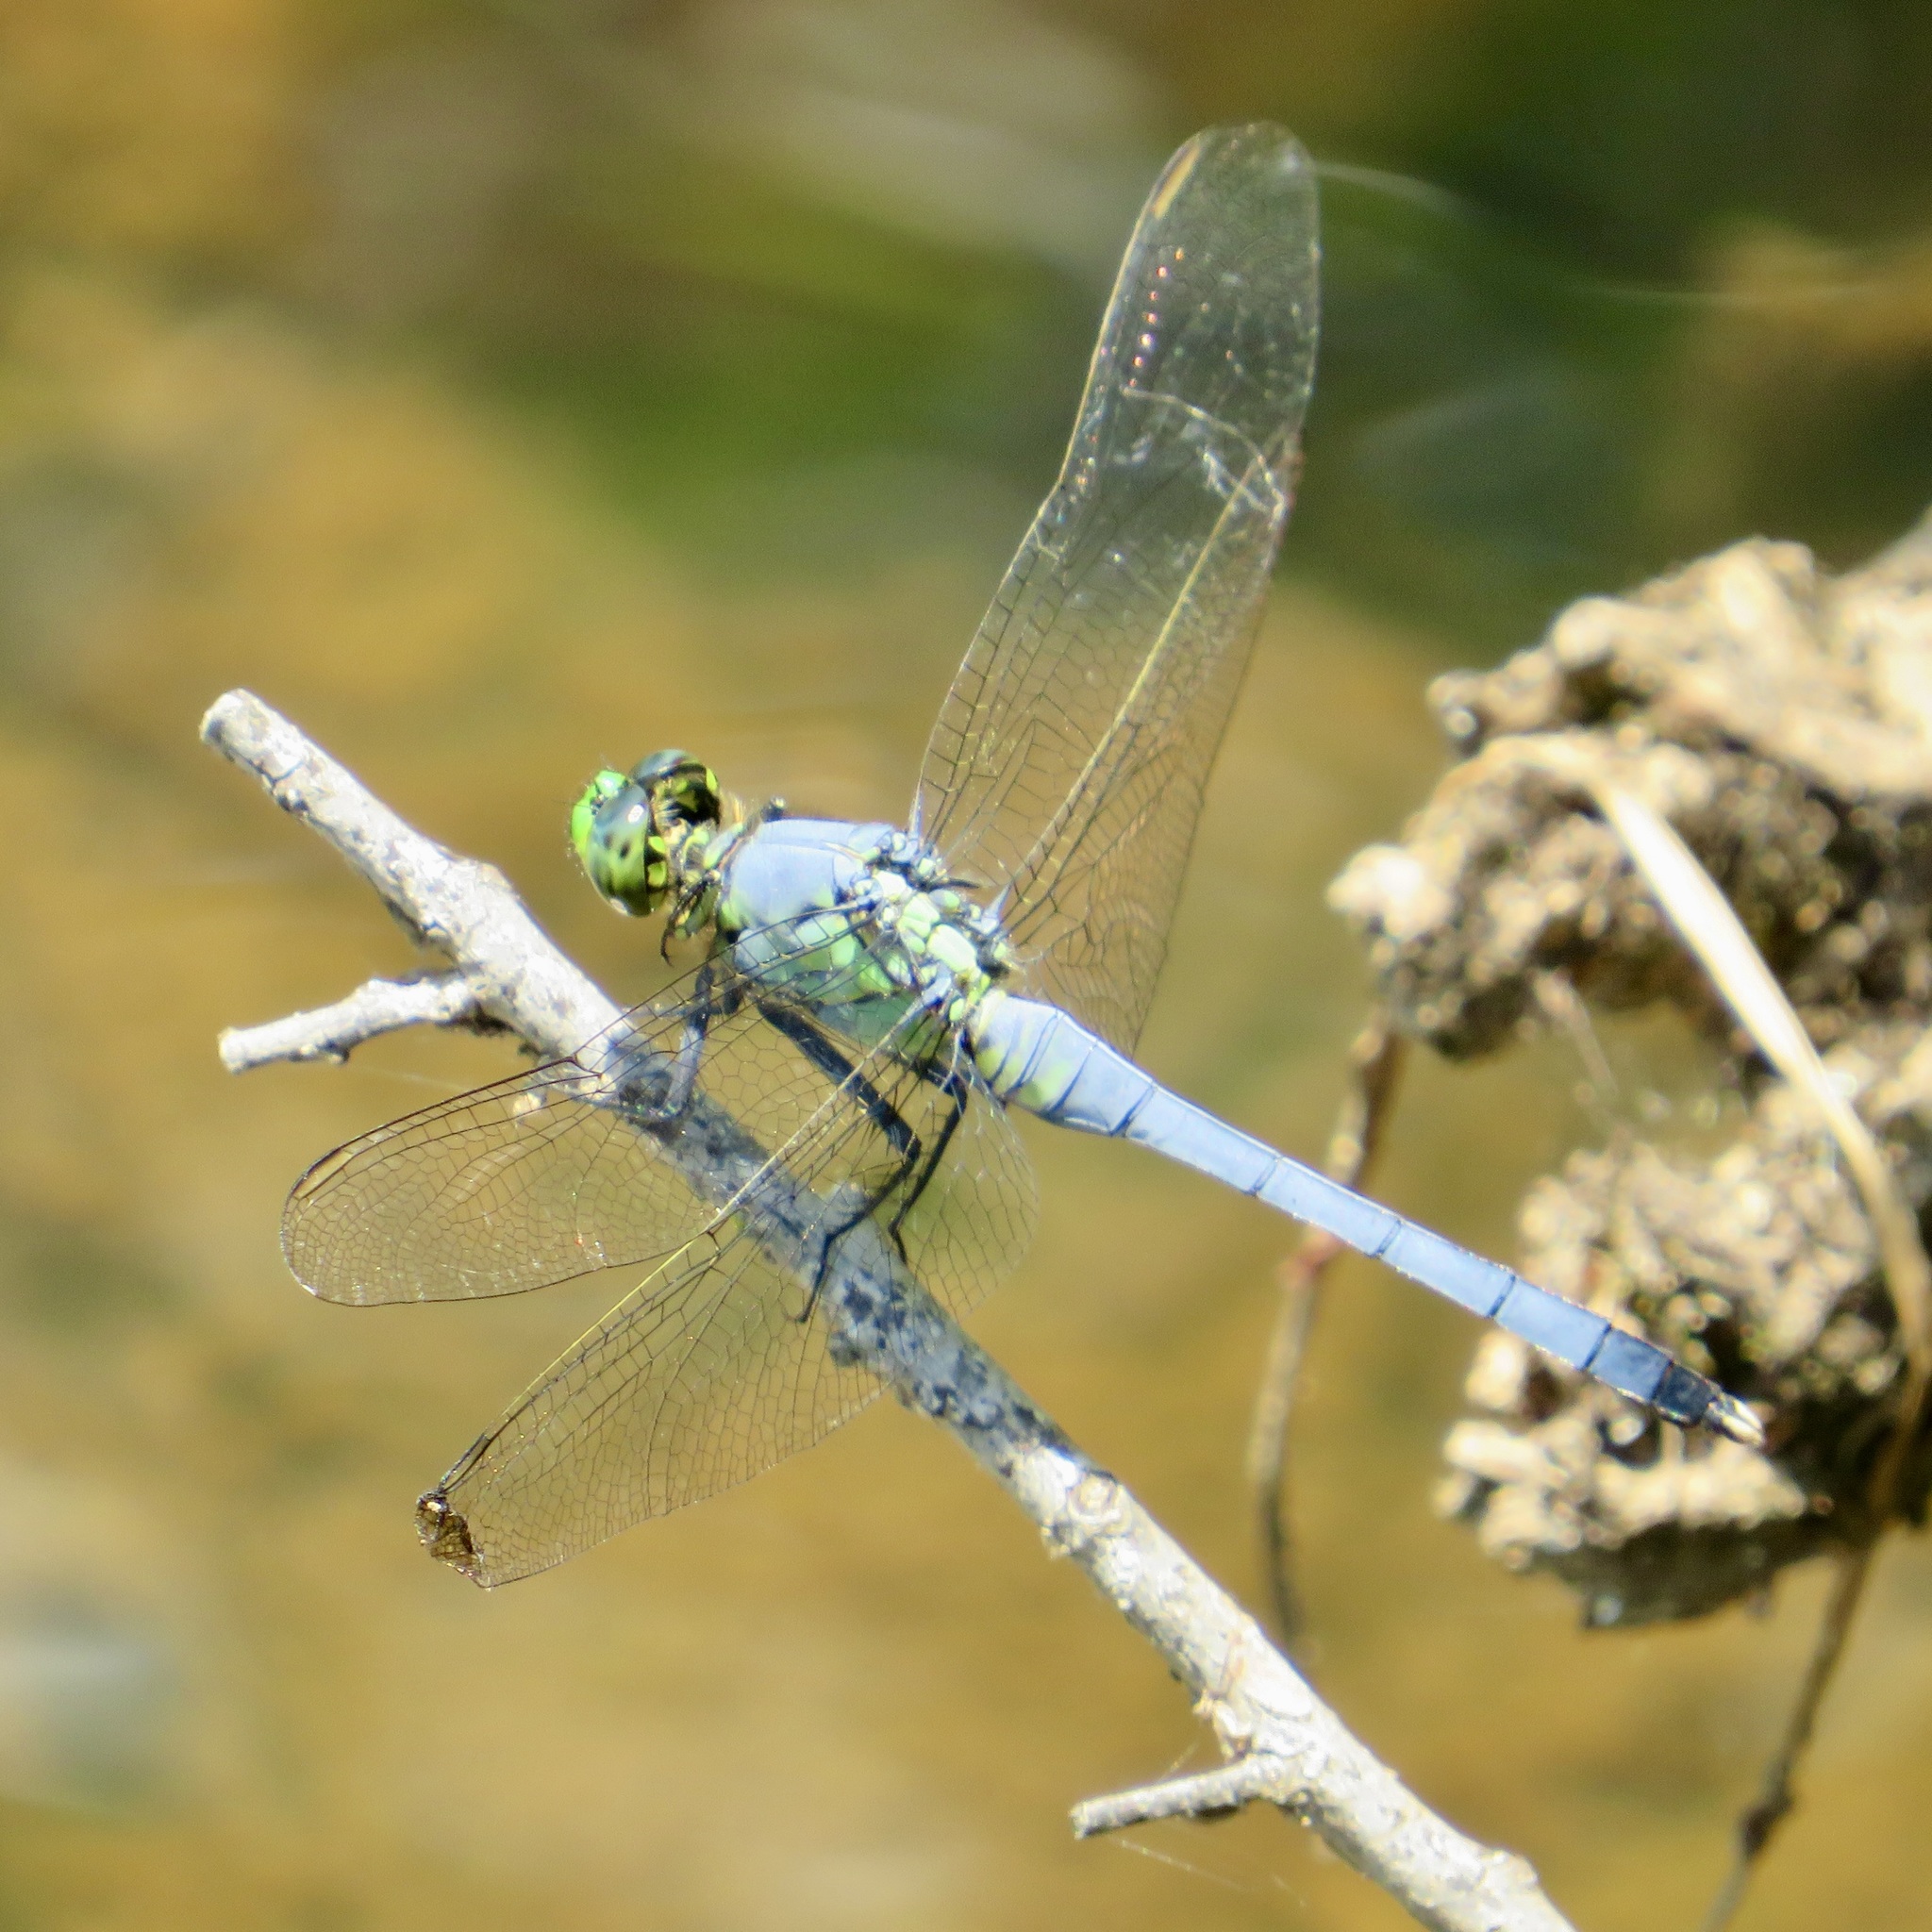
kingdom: Animalia
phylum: Arthropoda
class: Insecta
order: Odonata
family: Libellulidae
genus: Erythemis
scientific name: Erythemis simplicicollis
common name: Eastern pondhawk
